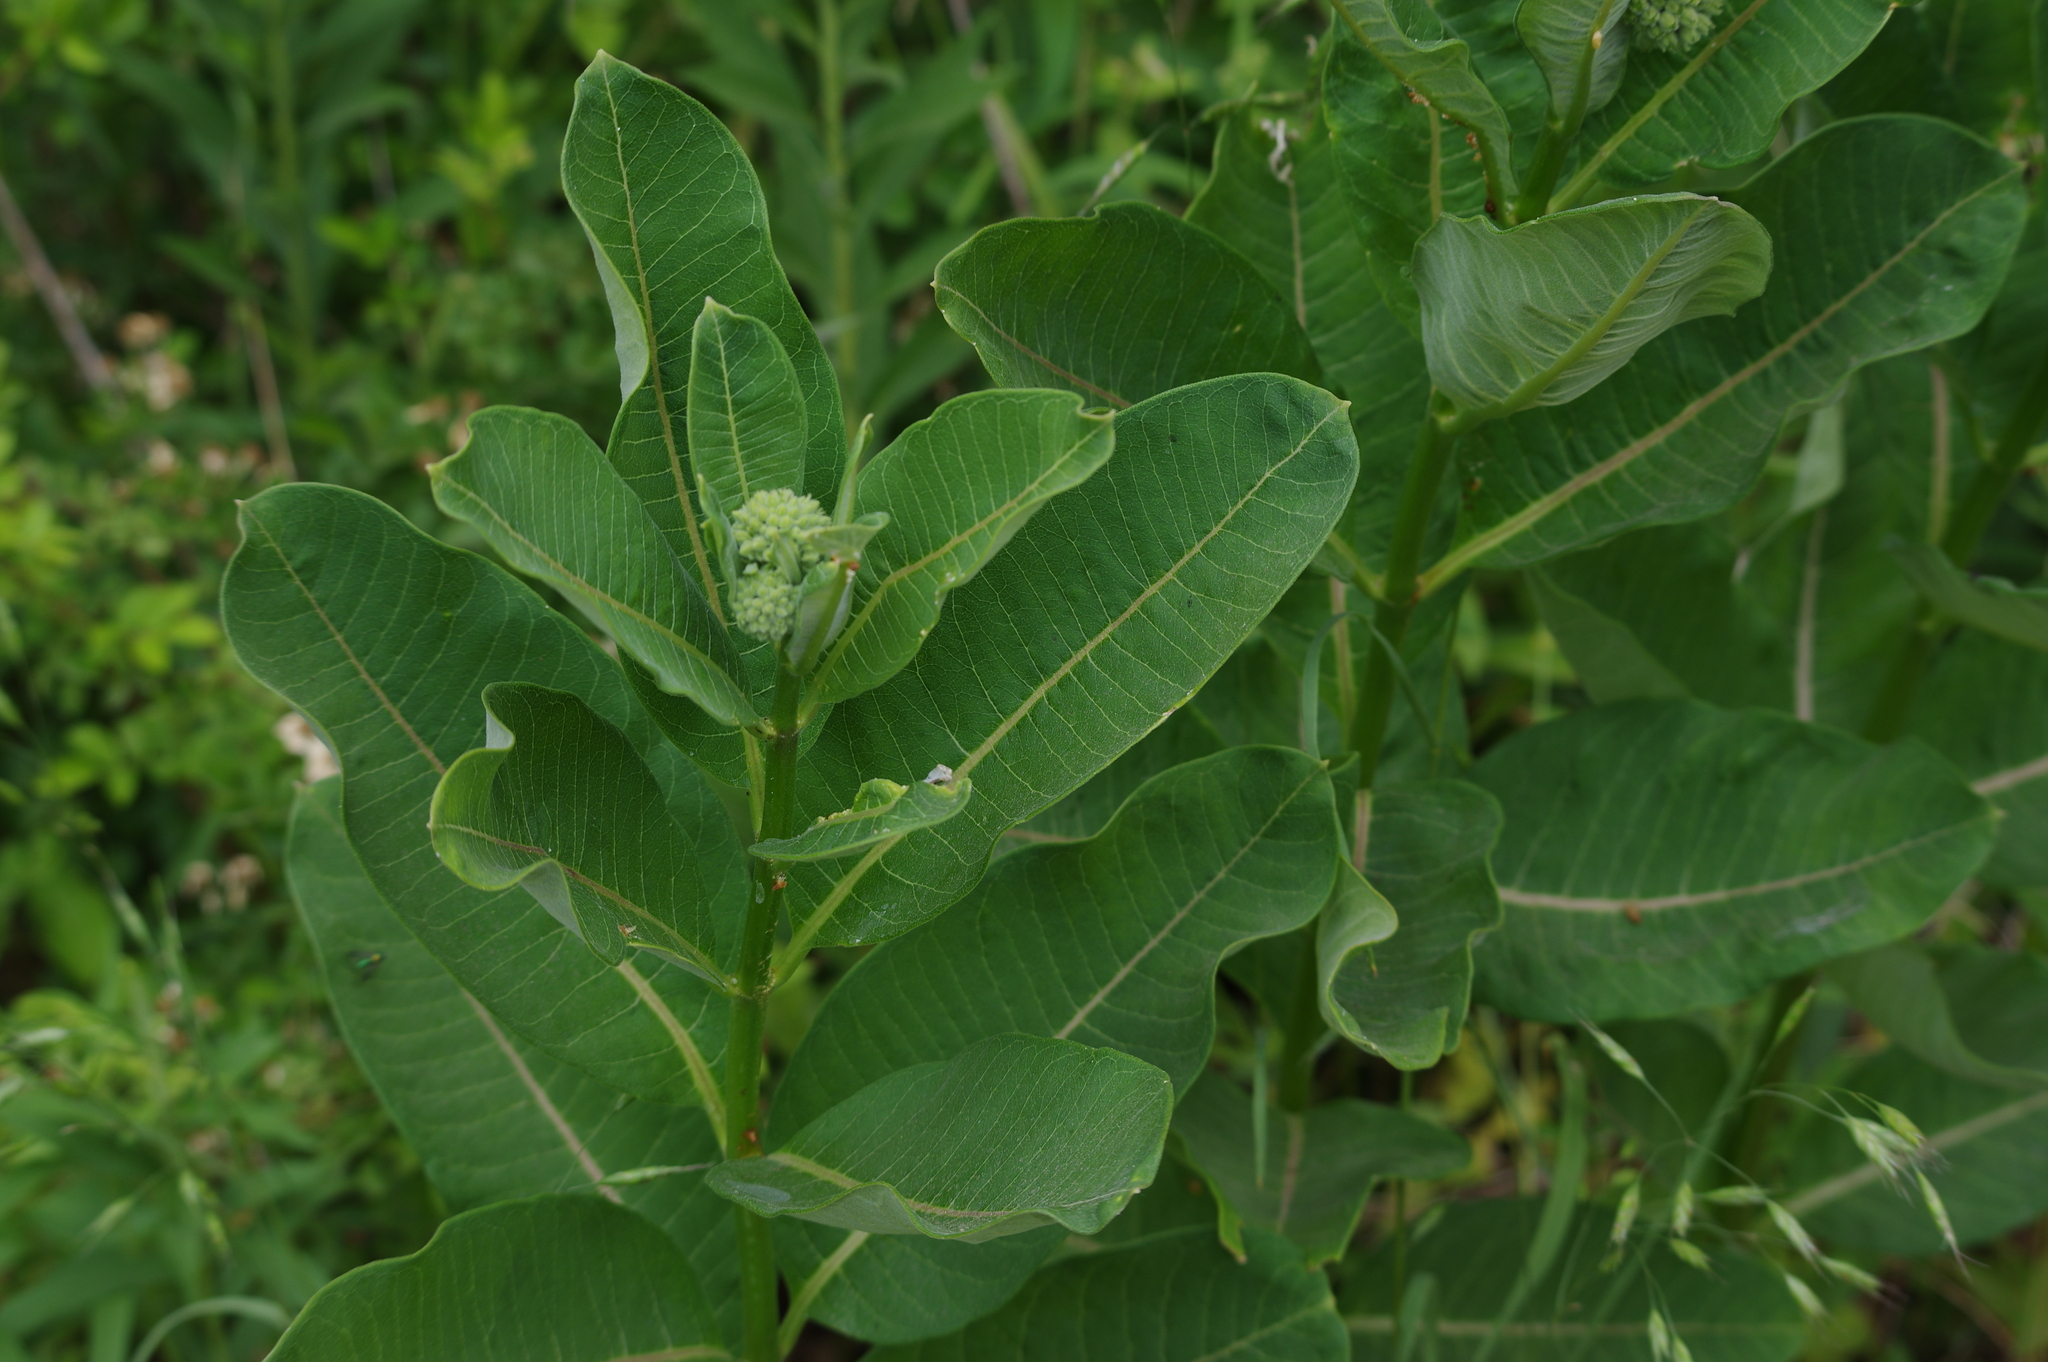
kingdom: Plantae
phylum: Tracheophyta
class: Magnoliopsida
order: Gentianales
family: Apocynaceae
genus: Asclepias
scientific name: Asclepias syriaca
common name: Common milkweed
